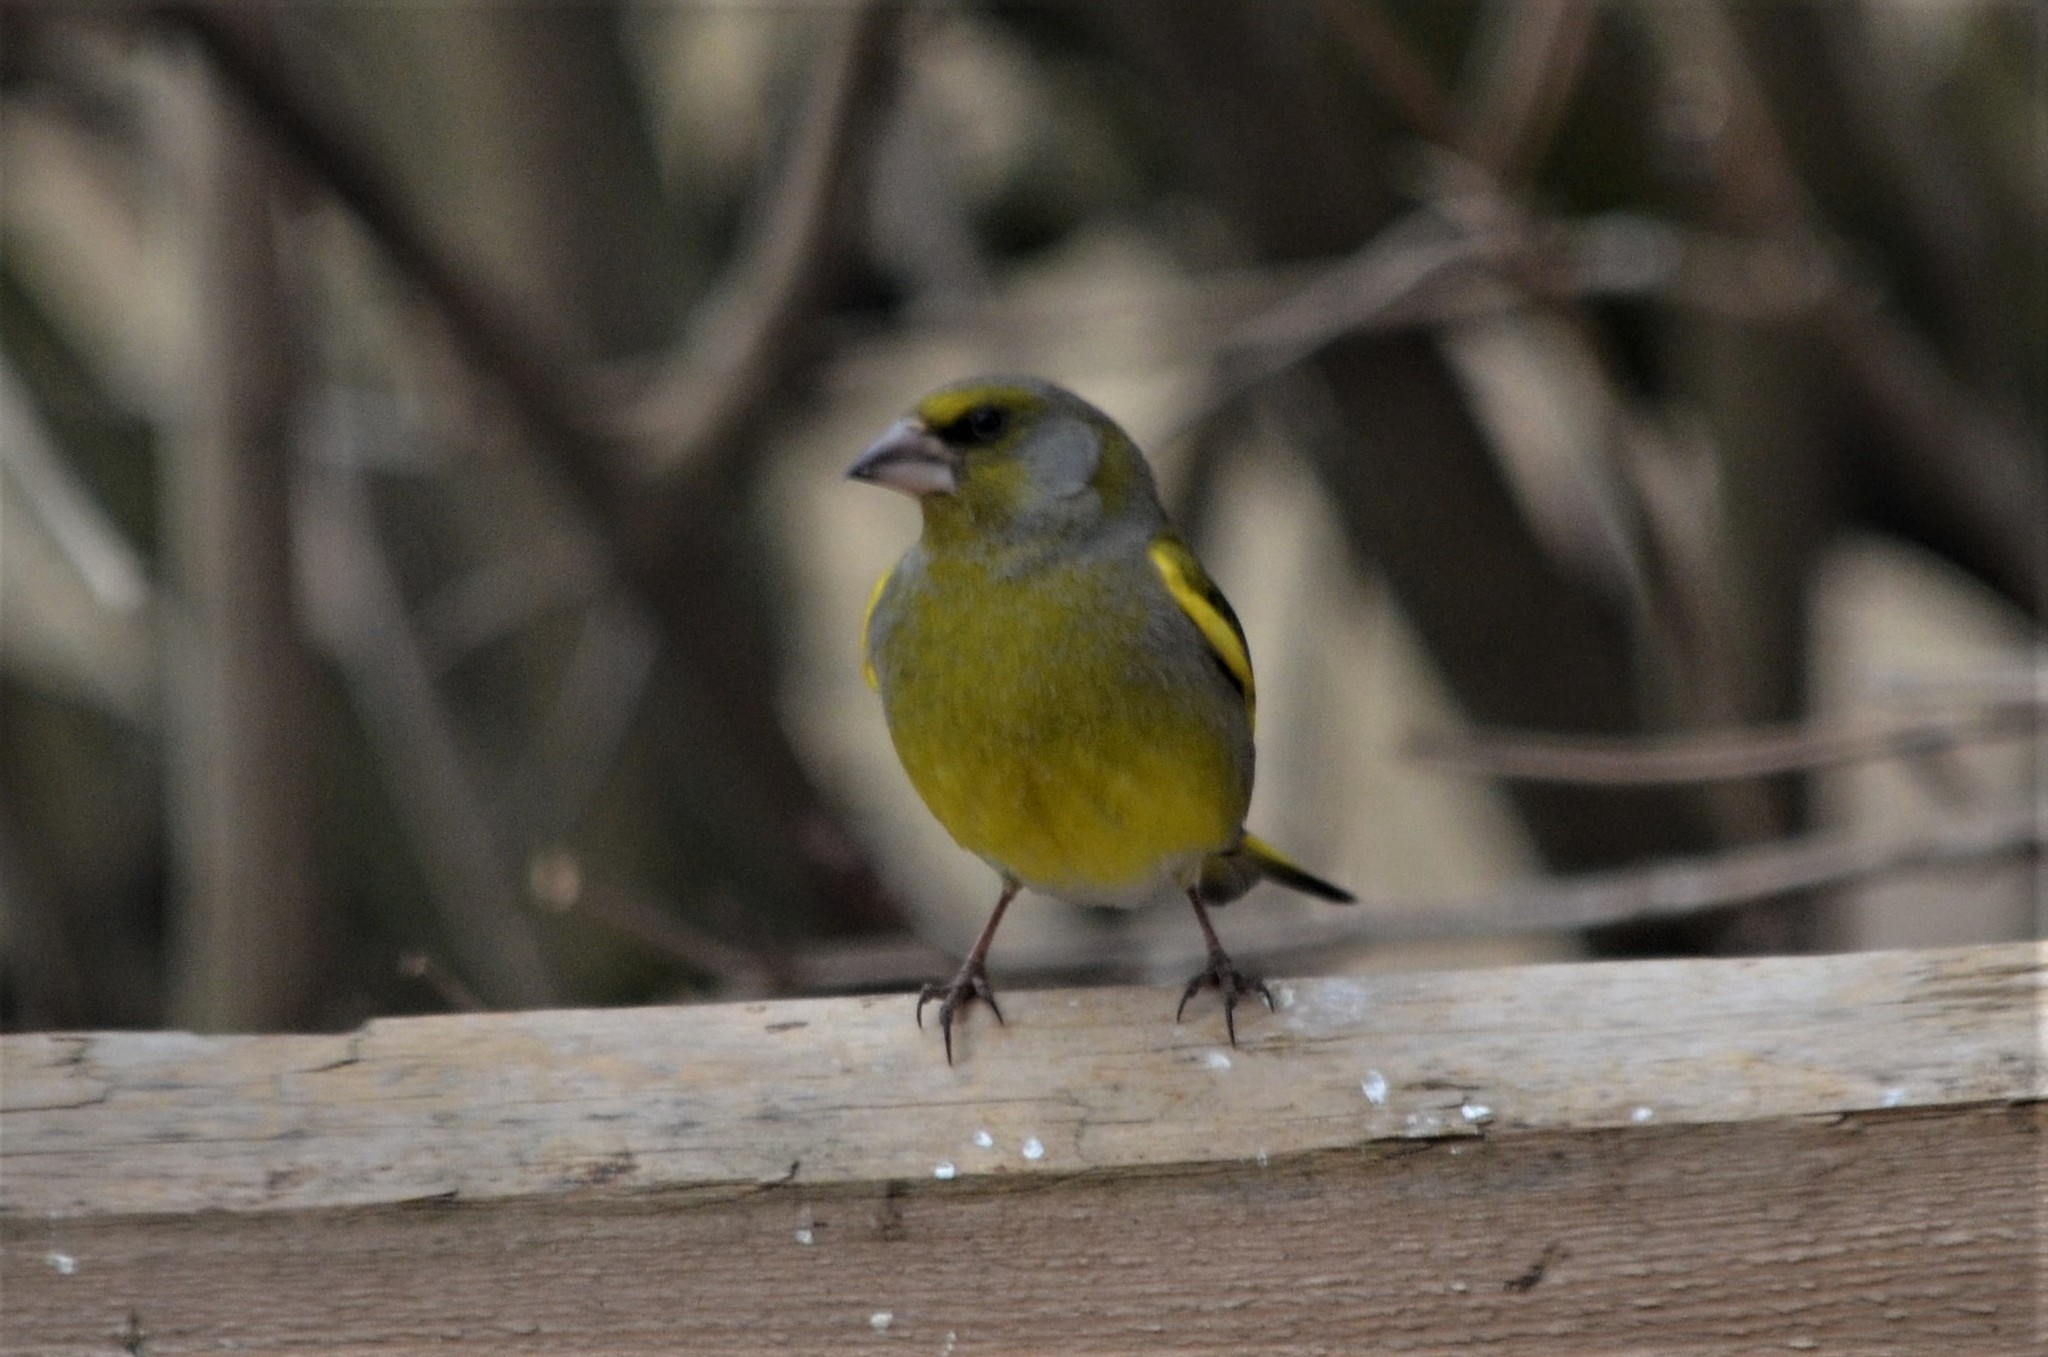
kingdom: Plantae
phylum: Tracheophyta
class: Liliopsida
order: Poales
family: Poaceae
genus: Chloris
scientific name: Chloris chloris
